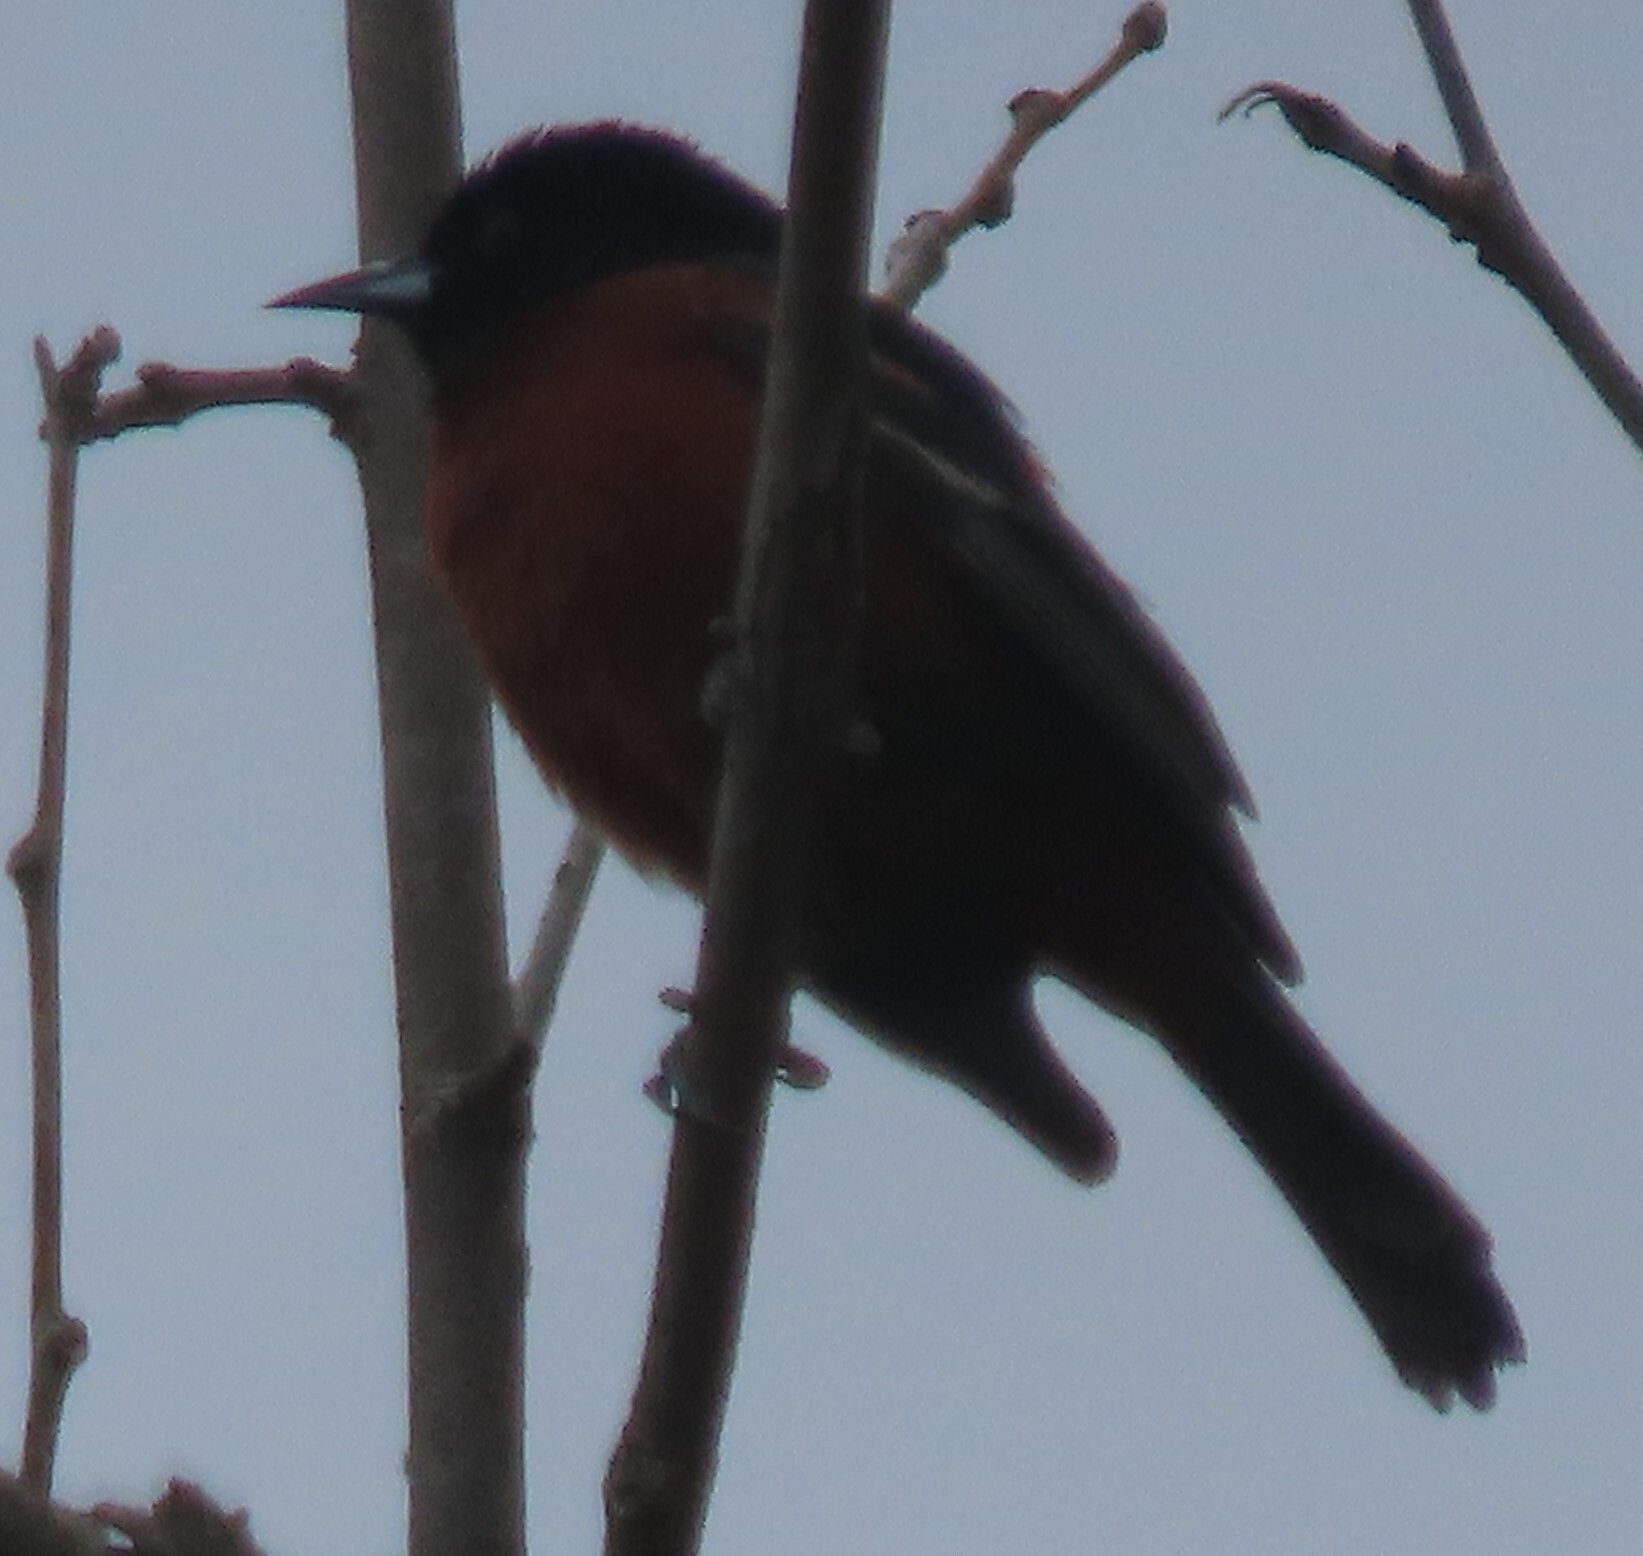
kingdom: Animalia
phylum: Chordata
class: Aves
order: Passeriformes
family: Icteridae
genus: Icterus
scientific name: Icterus spurius
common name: Orchard oriole
